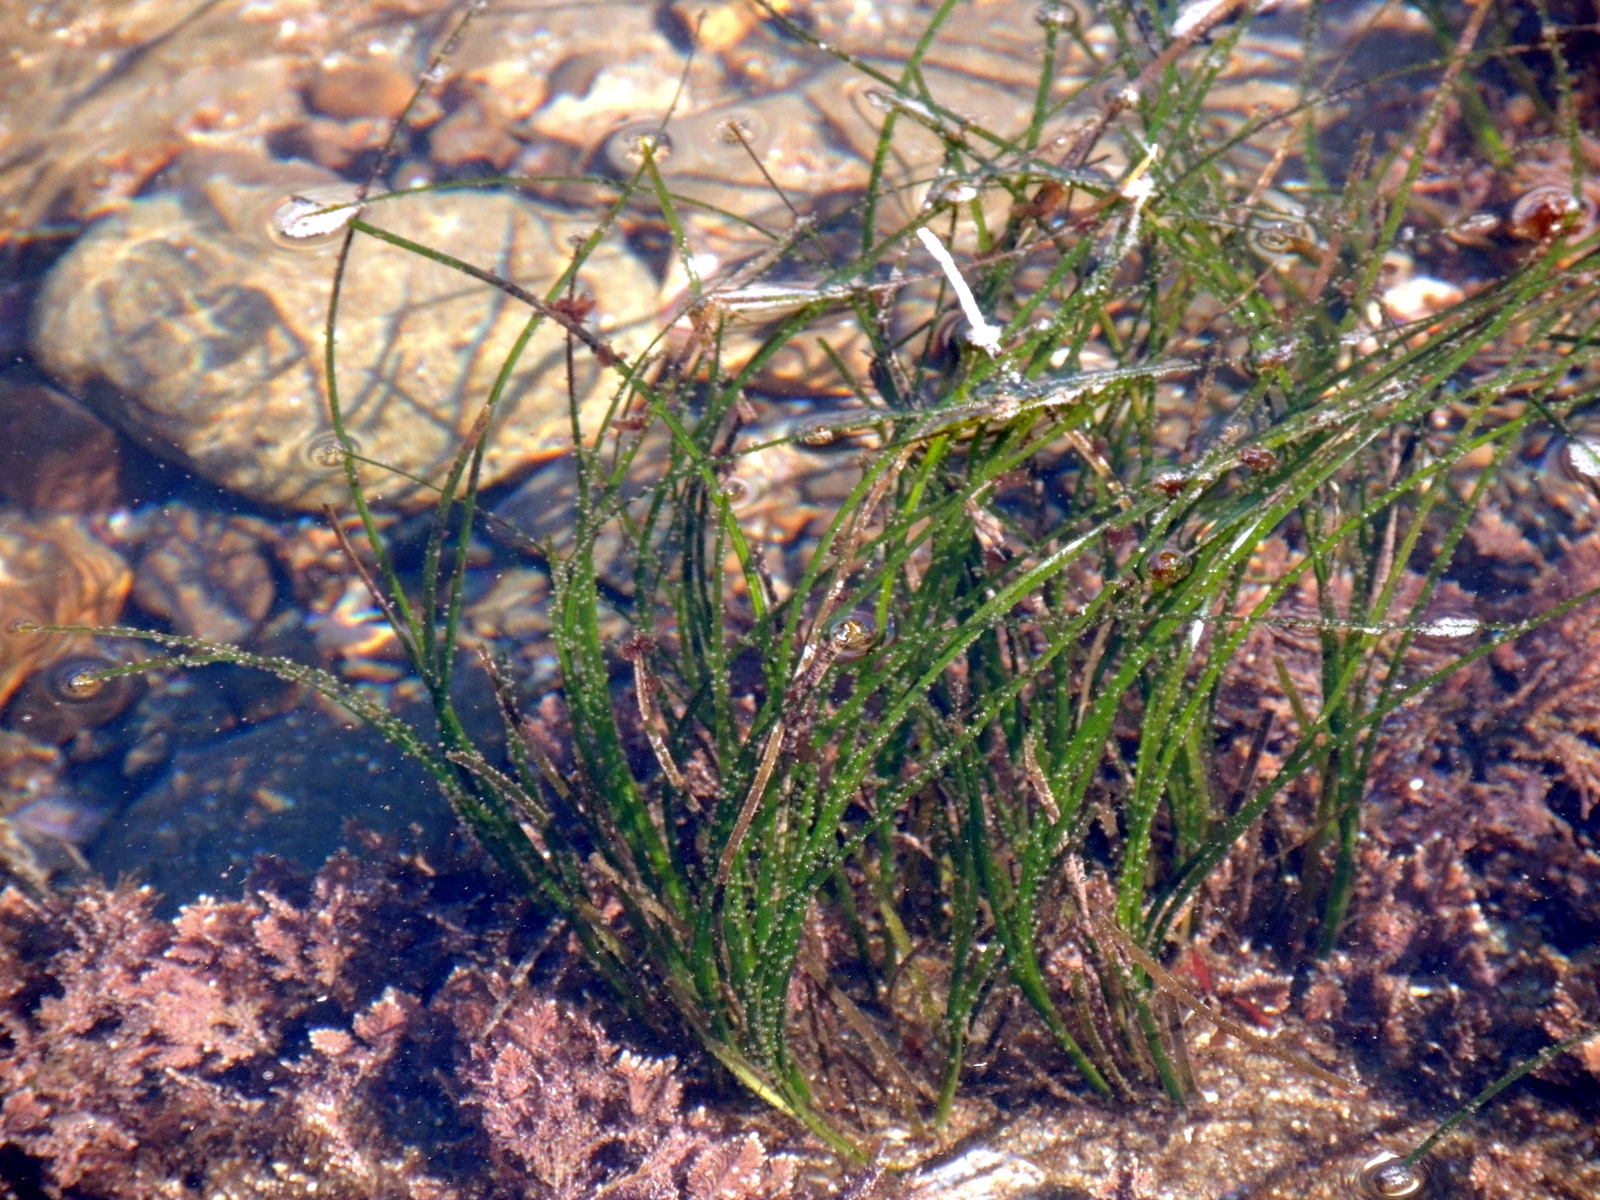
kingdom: Plantae
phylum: Tracheophyta
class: Liliopsida
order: Alismatales
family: Zosteraceae
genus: Phyllospadix
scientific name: Phyllospadix torreyi
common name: Surfgrass
